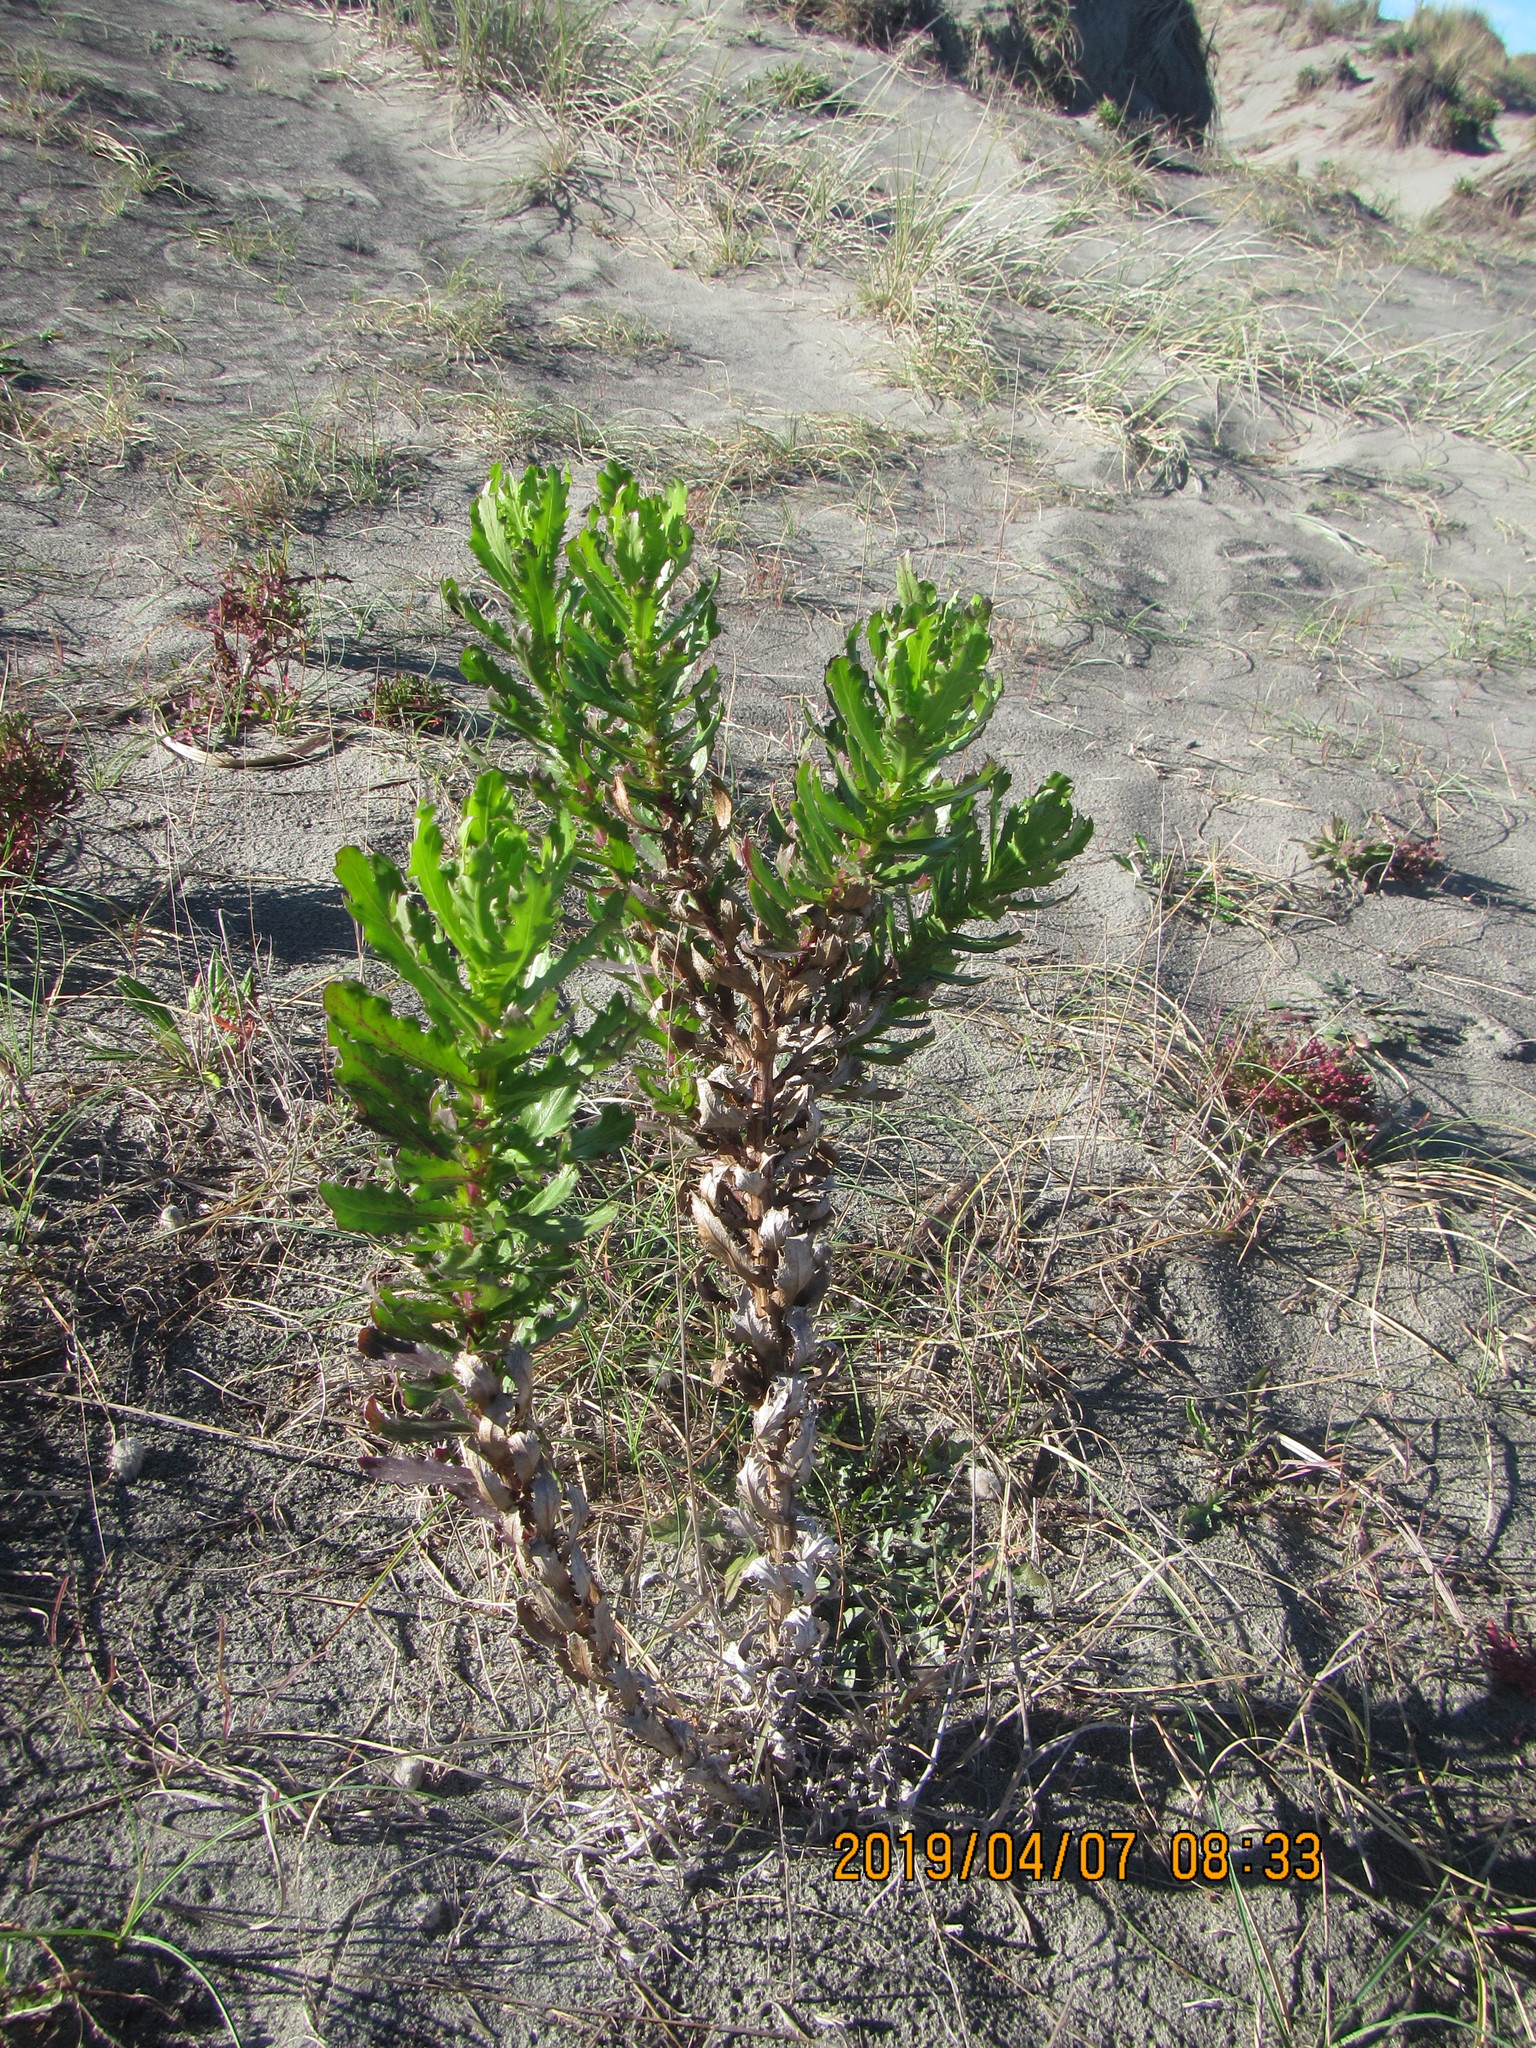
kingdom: Plantae
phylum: Tracheophyta
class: Magnoliopsida
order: Asterales
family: Asteraceae
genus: Senecio
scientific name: Senecio glastifolius
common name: Woad-leaved ragwort
